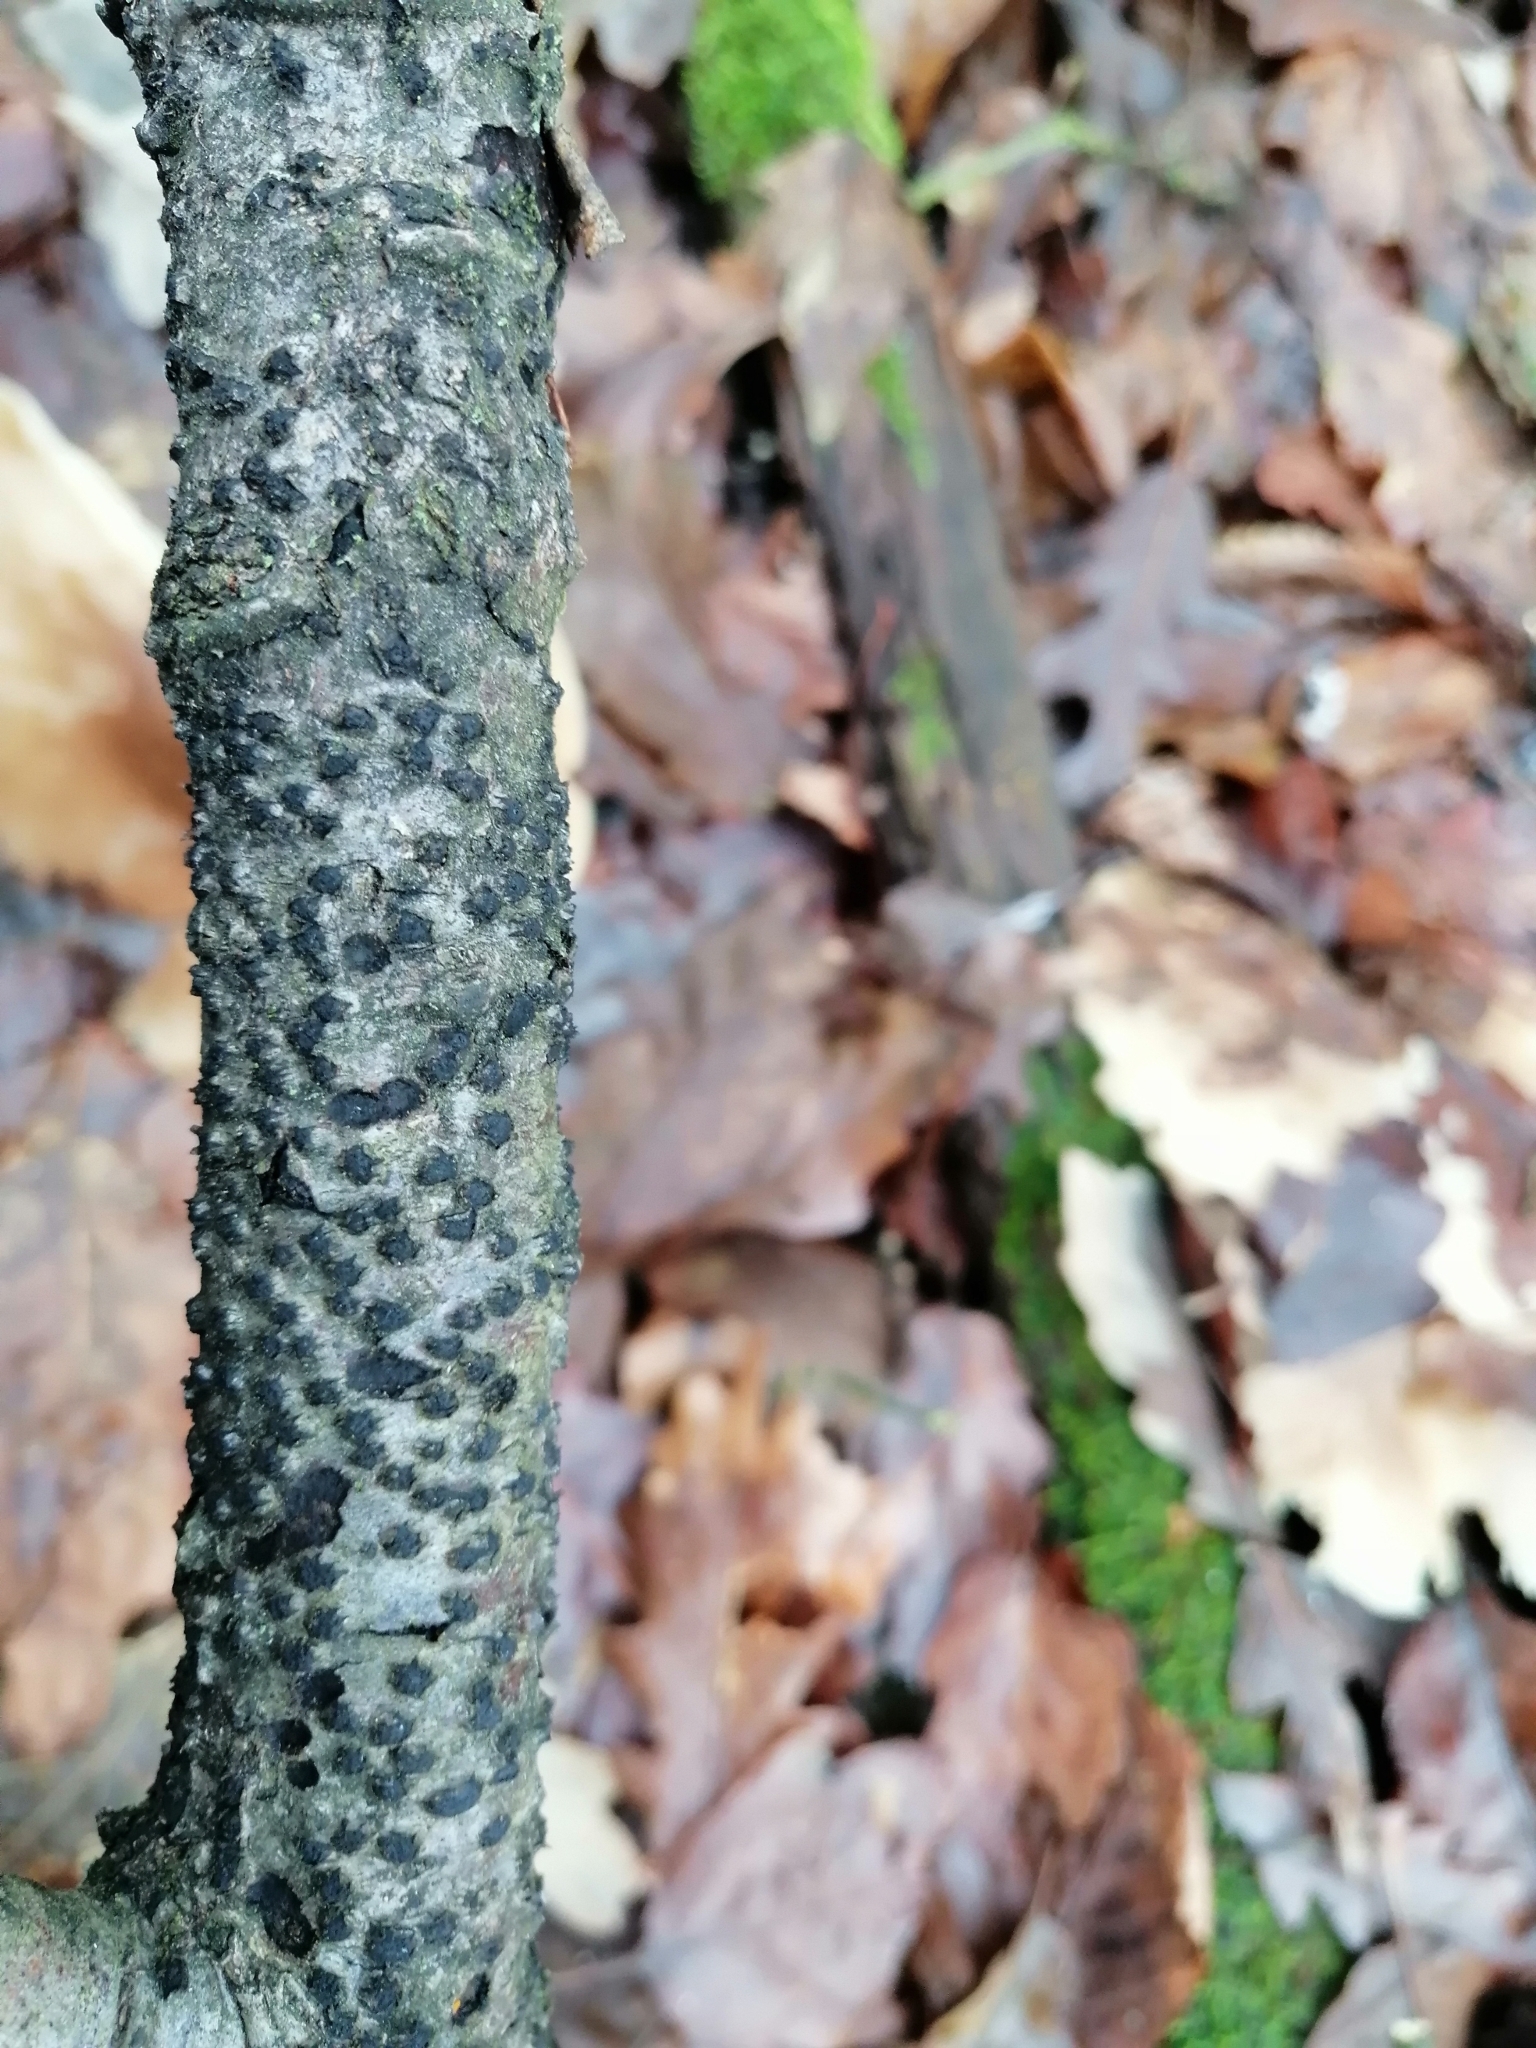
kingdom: Fungi
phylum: Ascomycota
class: Sordariomycetes
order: Xylariales
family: Diatrypaceae
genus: Diatrypella
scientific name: Diatrypella quercina
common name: Oak blackhead
